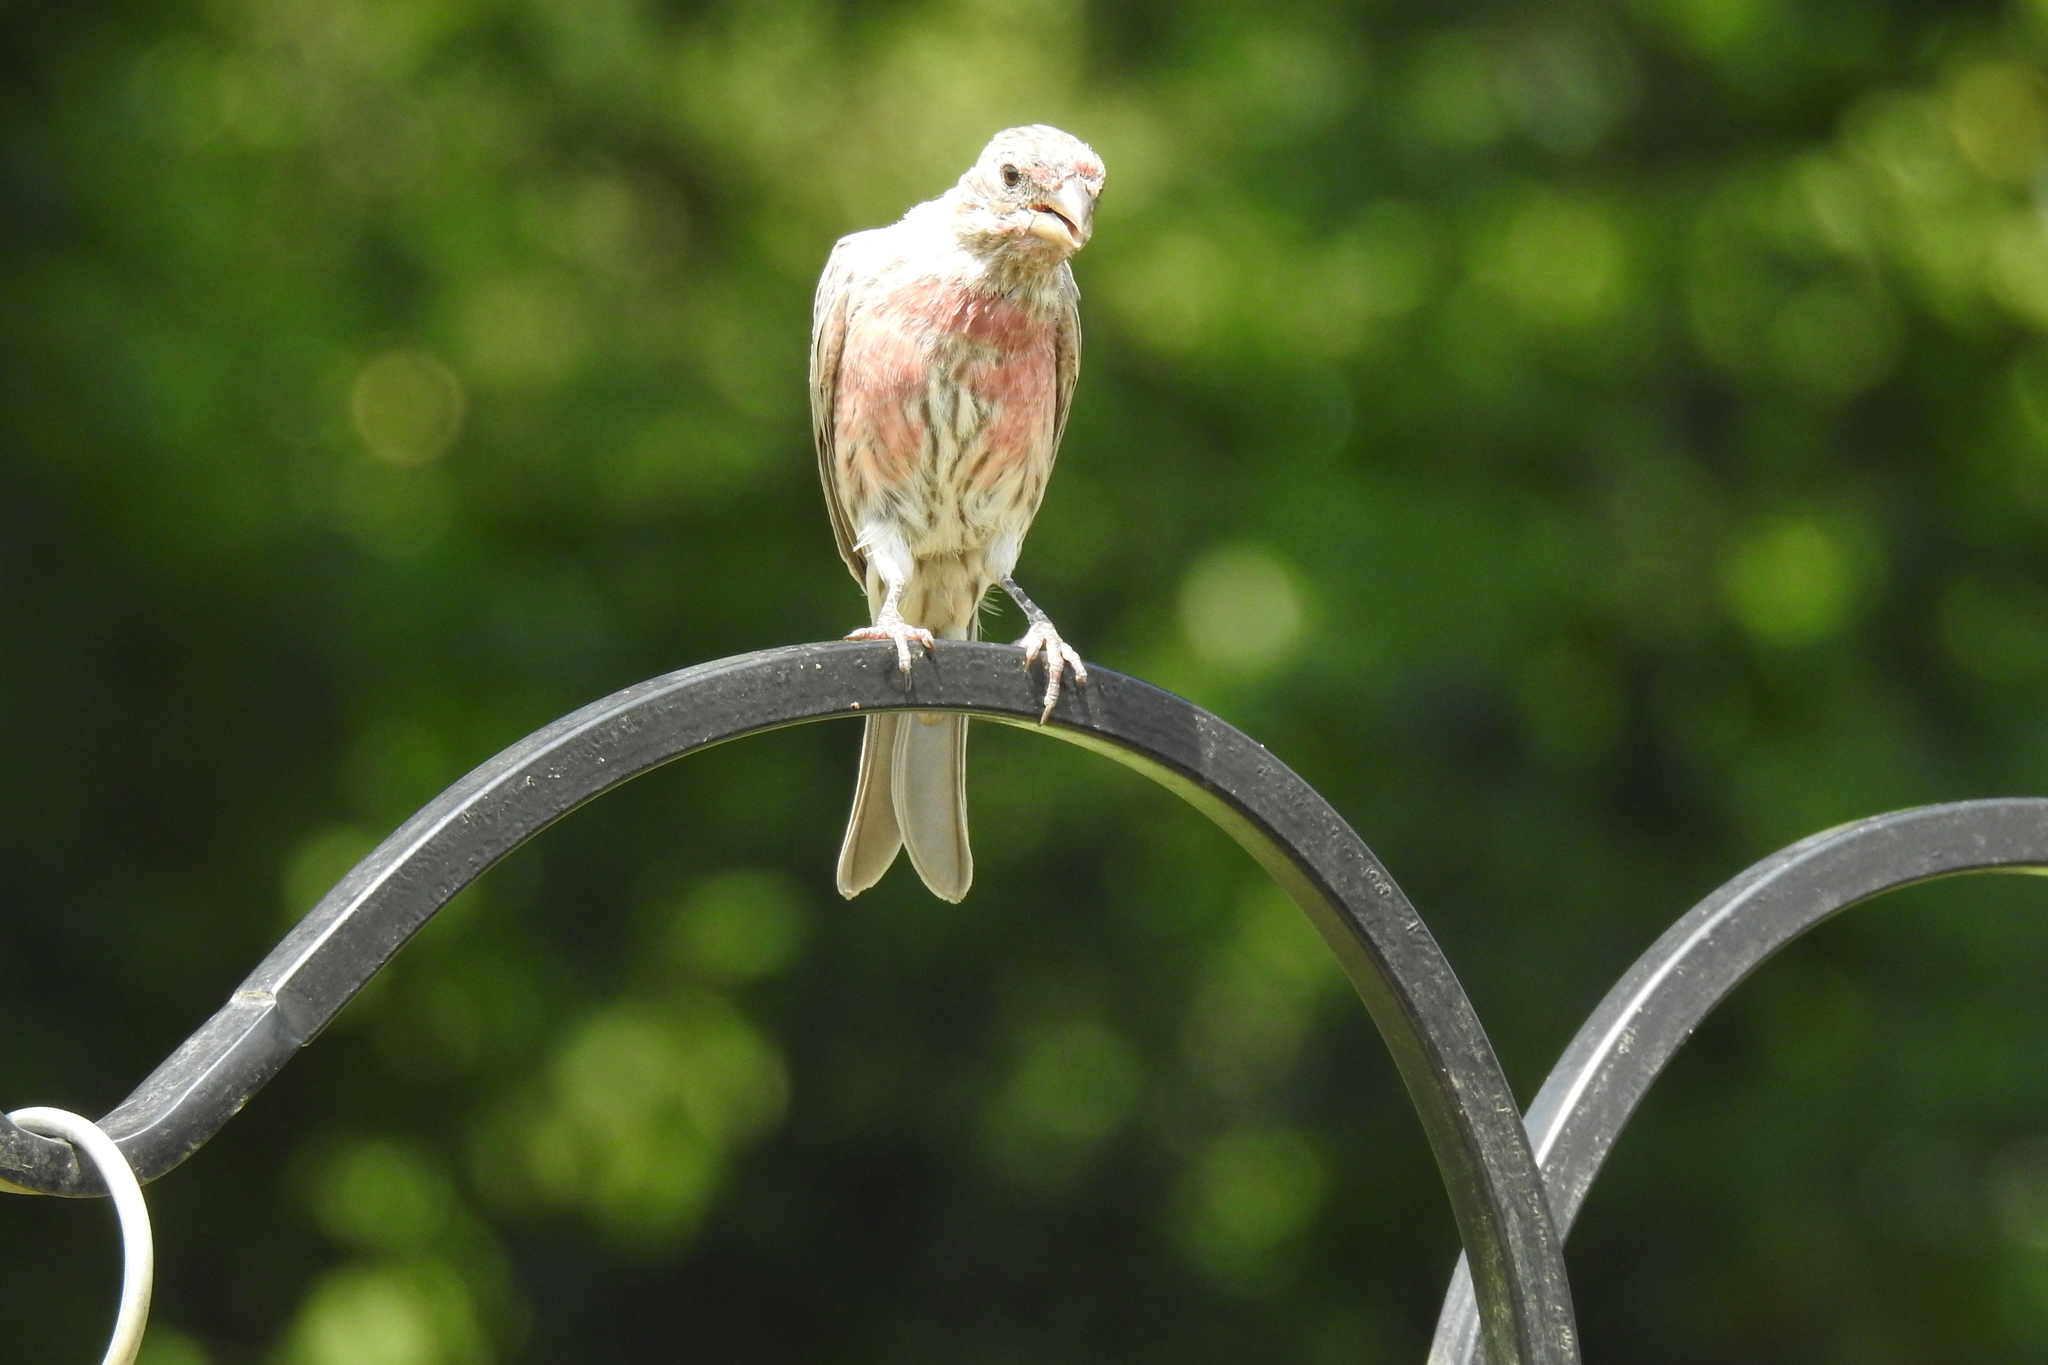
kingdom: Animalia
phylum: Chordata
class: Aves
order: Passeriformes
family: Fringillidae
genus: Haemorhous
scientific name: Haemorhous mexicanus
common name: House finch
